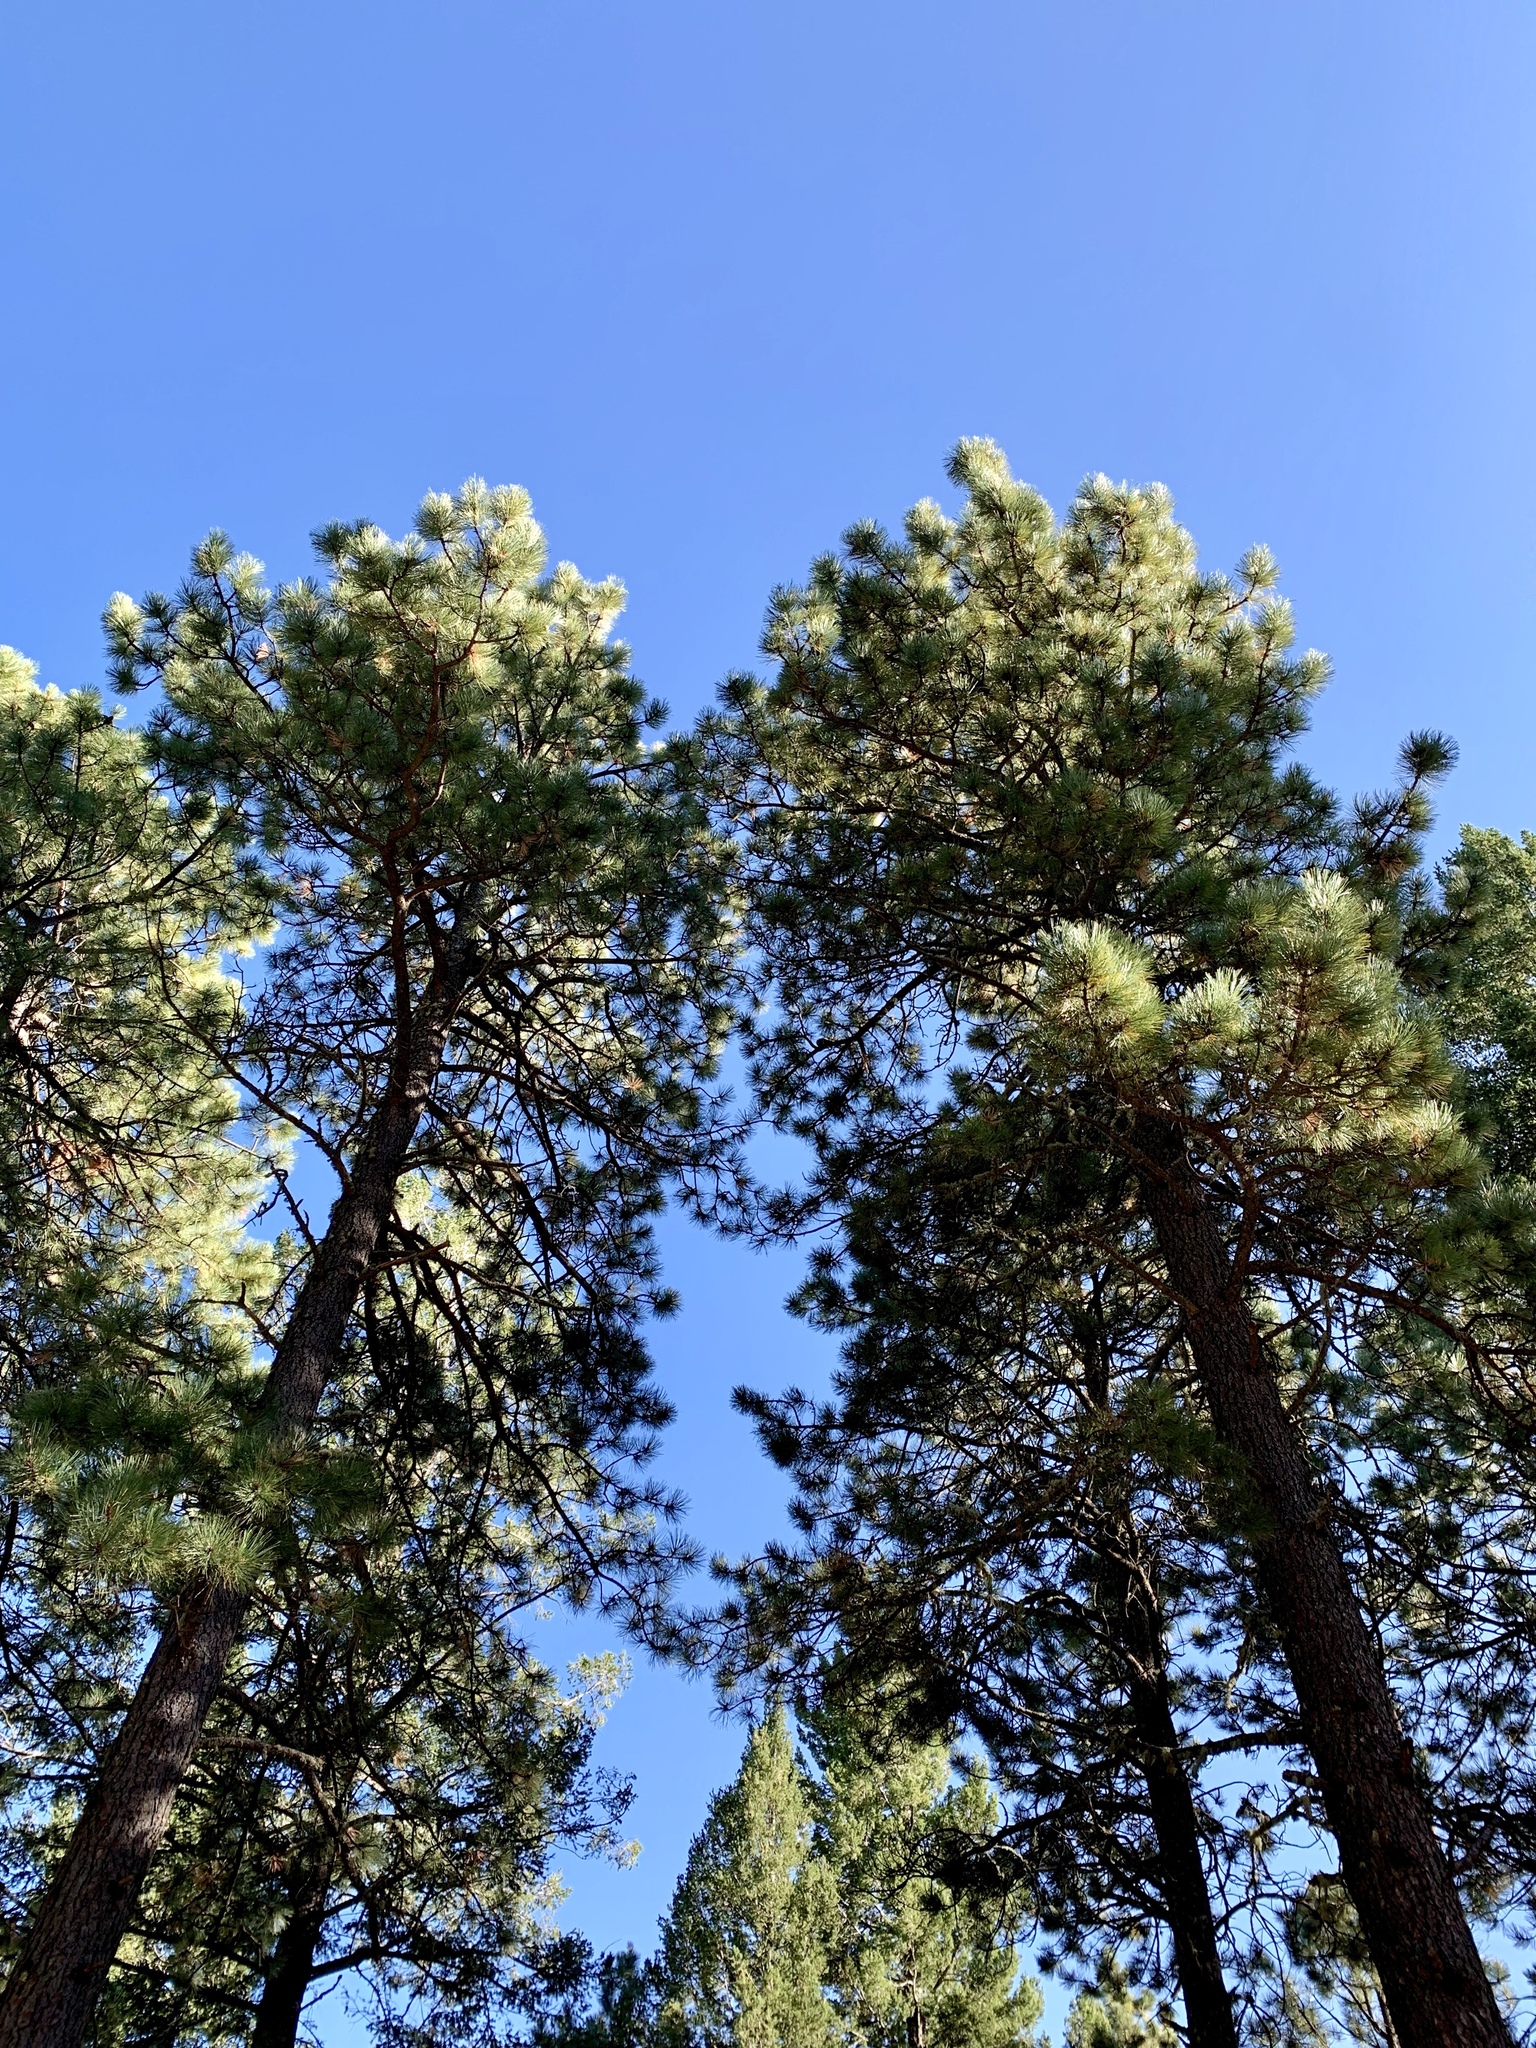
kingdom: Plantae
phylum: Tracheophyta
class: Pinopsida
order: Pinales
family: Pinaceae
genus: Pinus
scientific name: Pinus ponderosa
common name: Western yellow-pine
